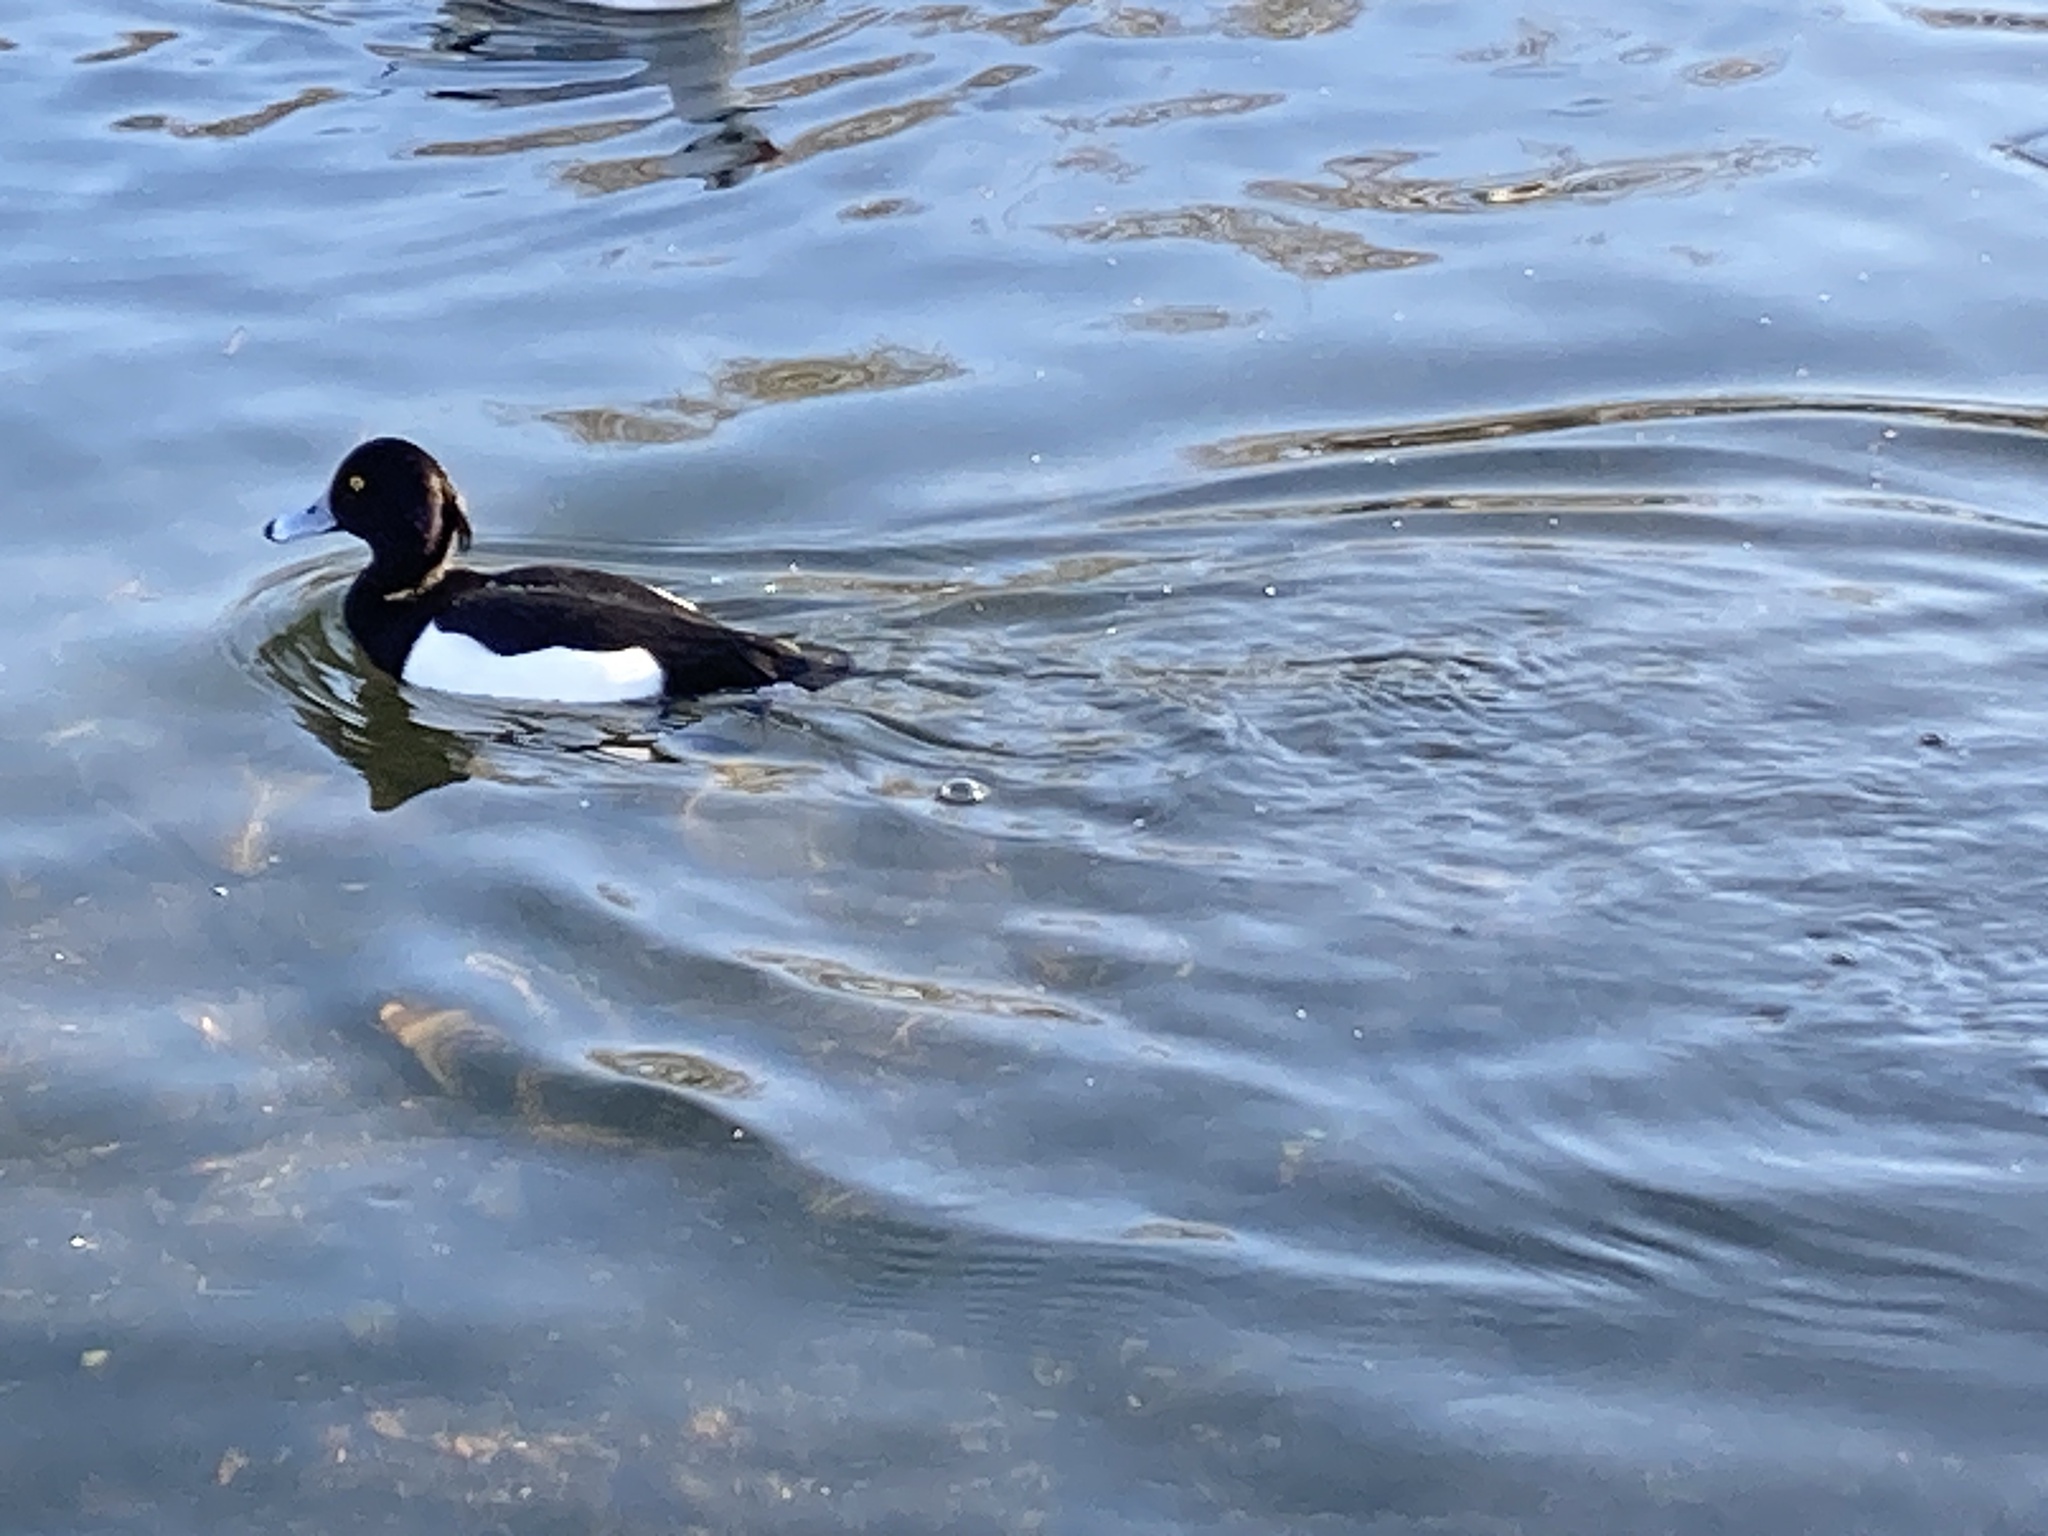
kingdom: Animalia
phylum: Chordata
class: Aves
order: Anseriformes
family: Anatidae
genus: Aythya
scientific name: Aythya fuligula
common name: Tufted duck
